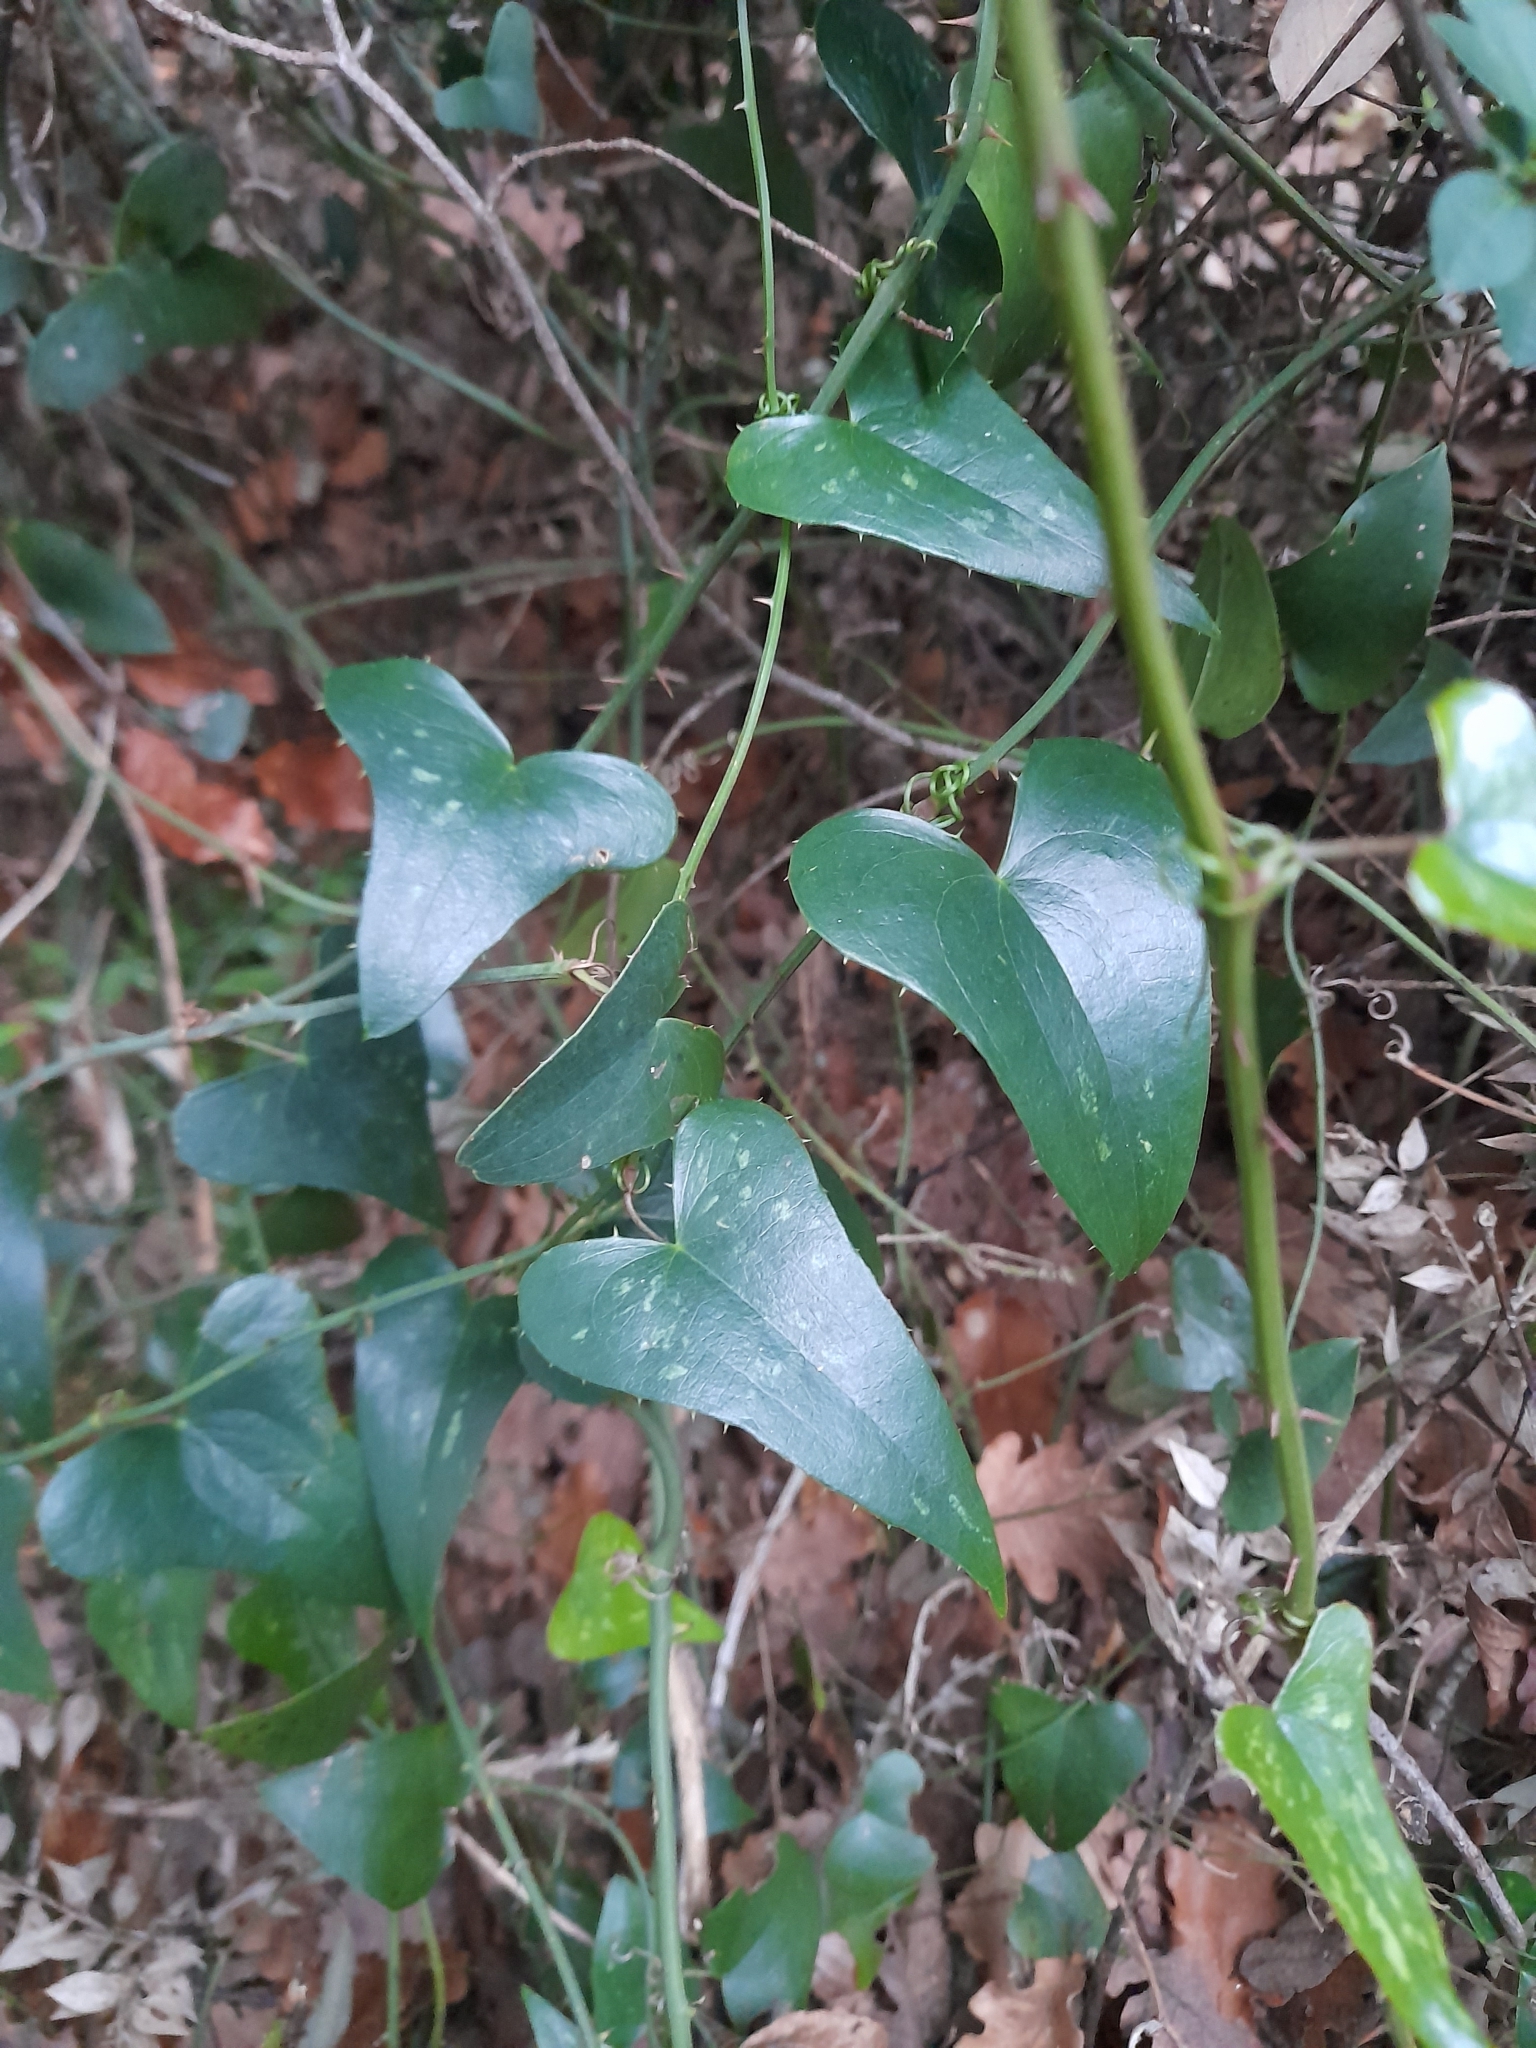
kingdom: Plantae
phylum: Tracheophyta
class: Liliopsida
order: Liliales
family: Smilacaceae
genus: Smilax
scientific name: Smilax aspera
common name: Common smilax
